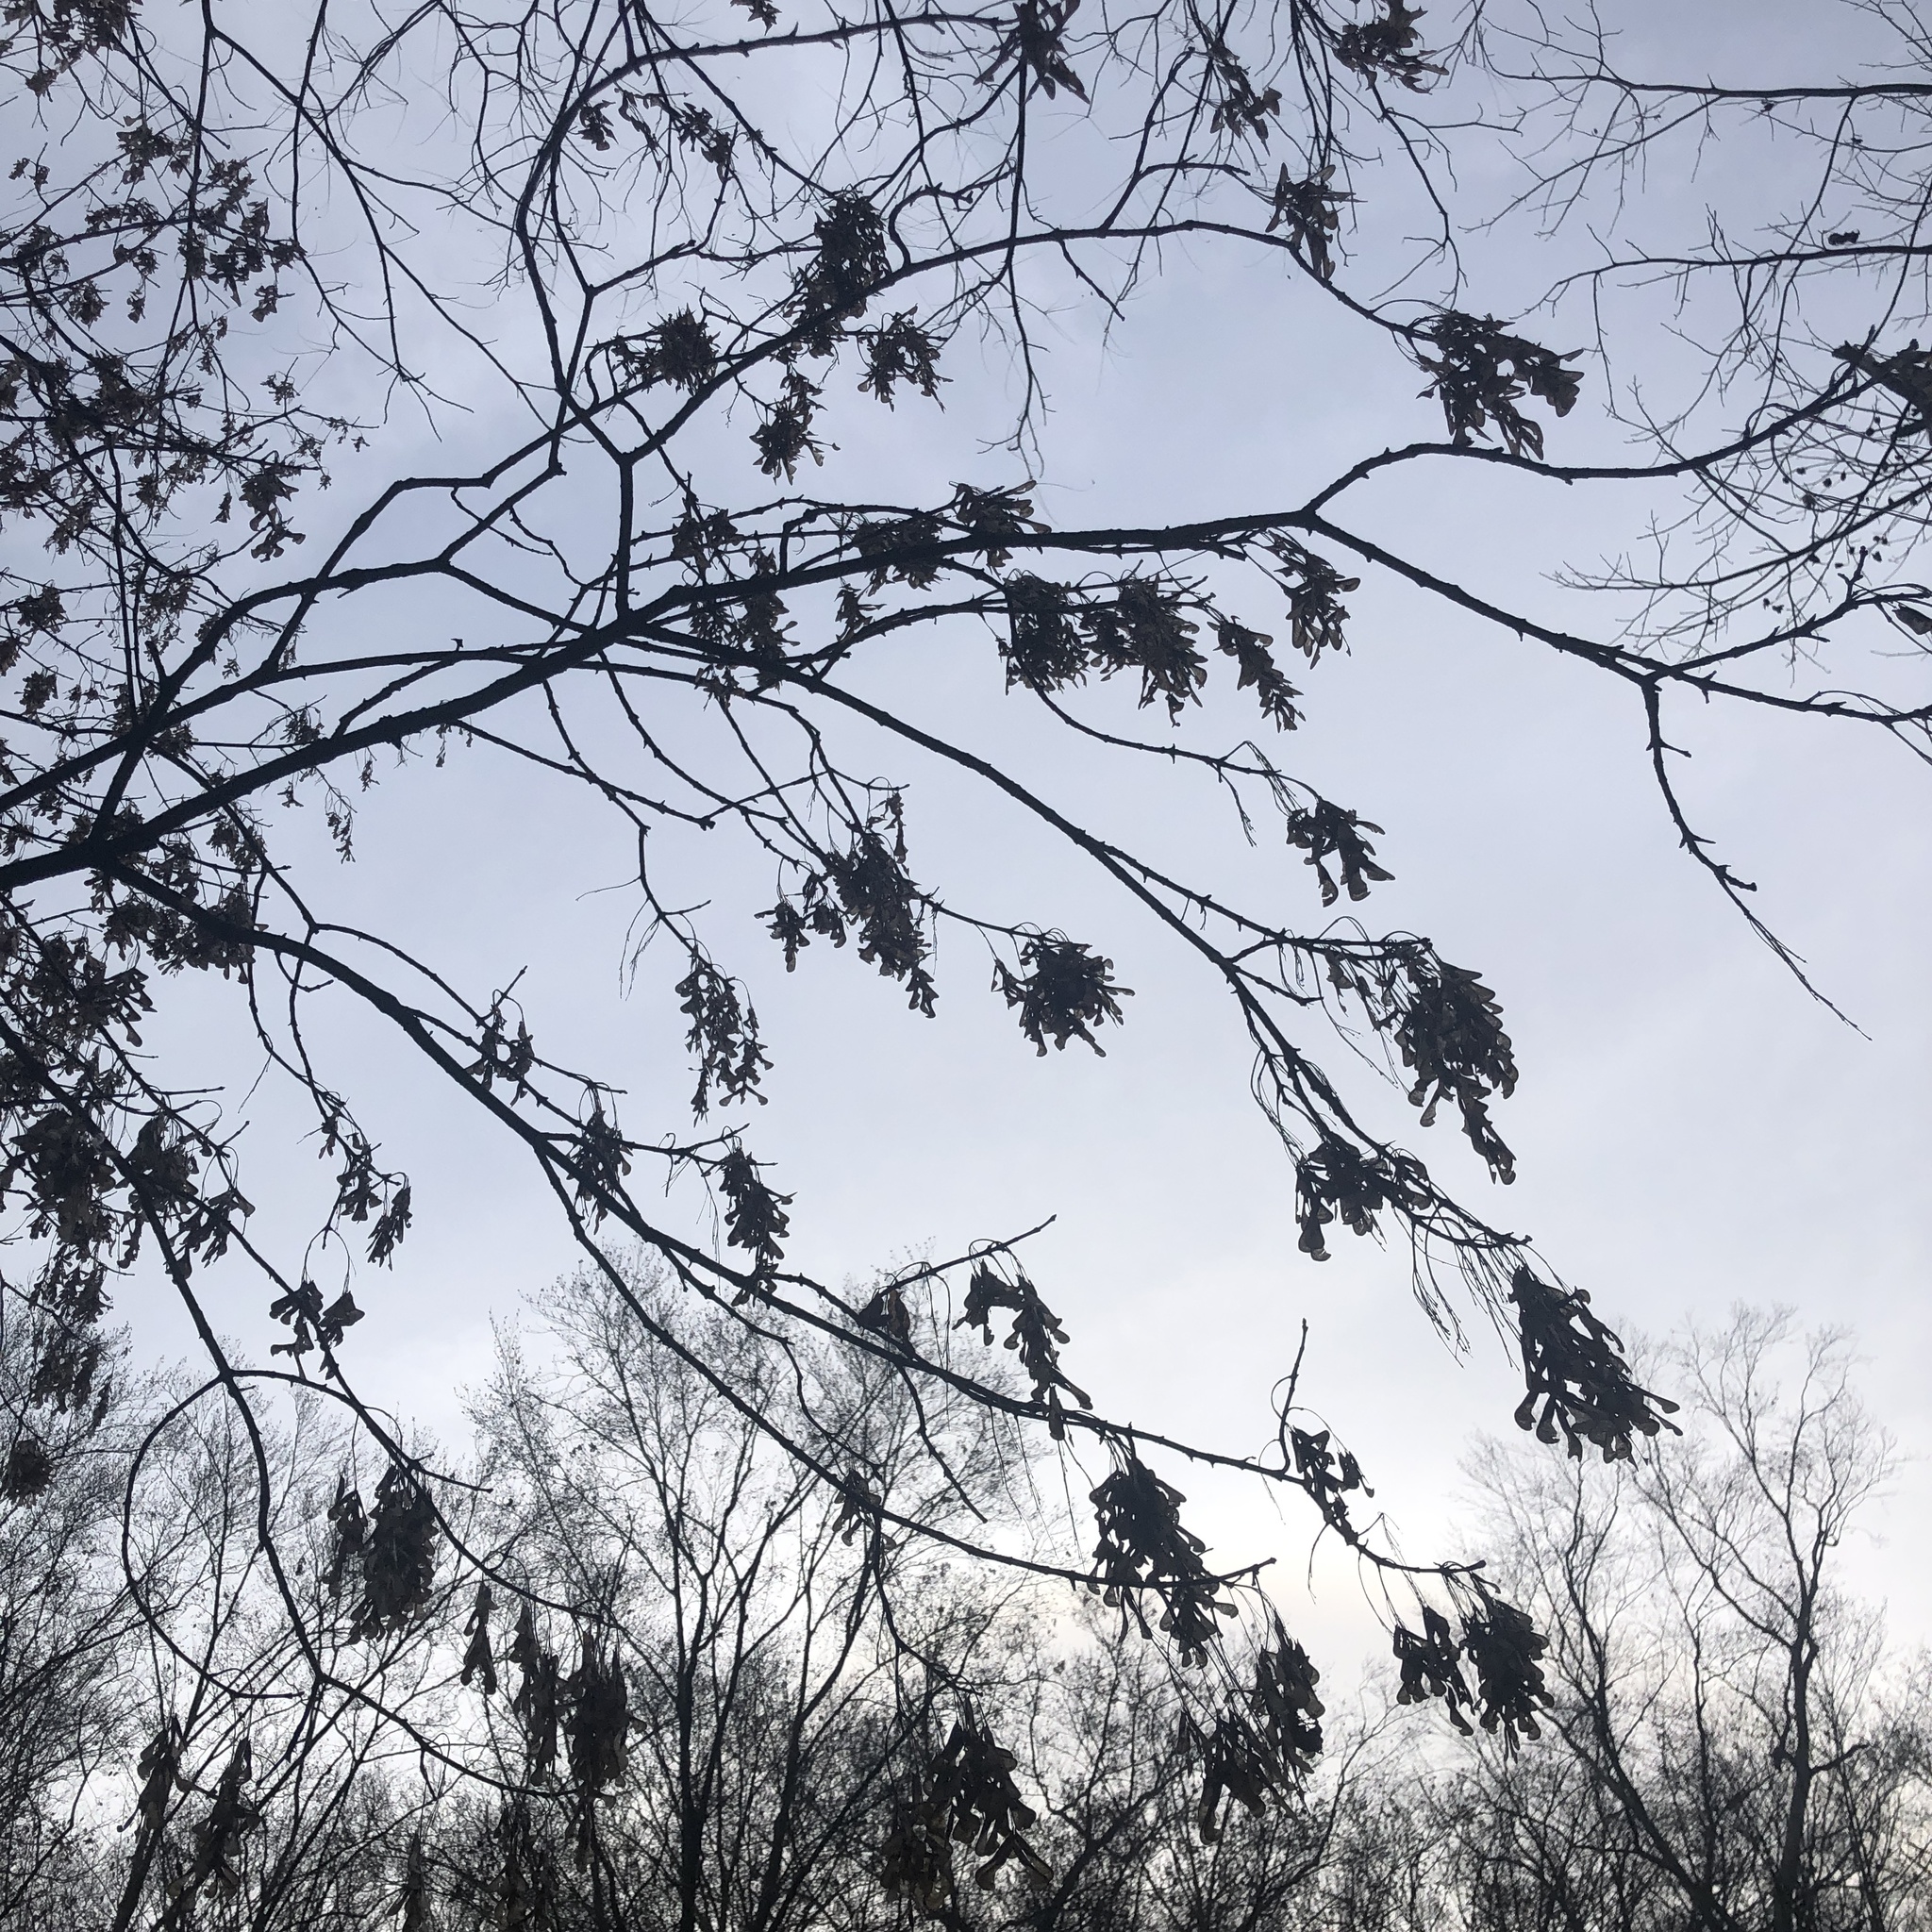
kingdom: Plantae
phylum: Tracheophyta
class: Magnoliopsida
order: Sapindales
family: Sapindaceae
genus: Acer
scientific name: Acer negundo
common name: Ashleaf maple
